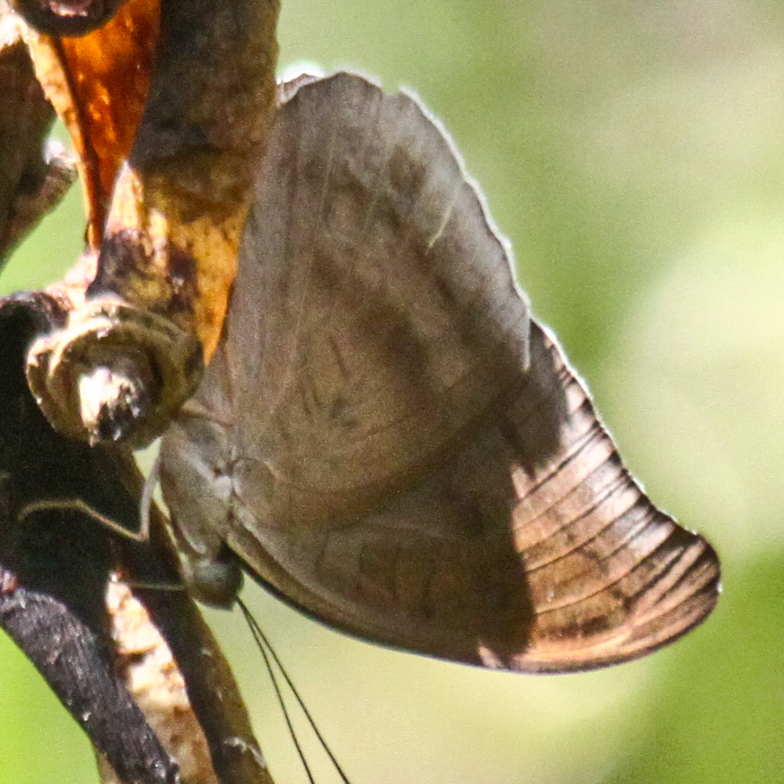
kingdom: Animalia
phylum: Arthropoda
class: Insecta
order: Lepidoptera
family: Nymphalidae
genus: Tanaecia
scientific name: Tanaecia julii
